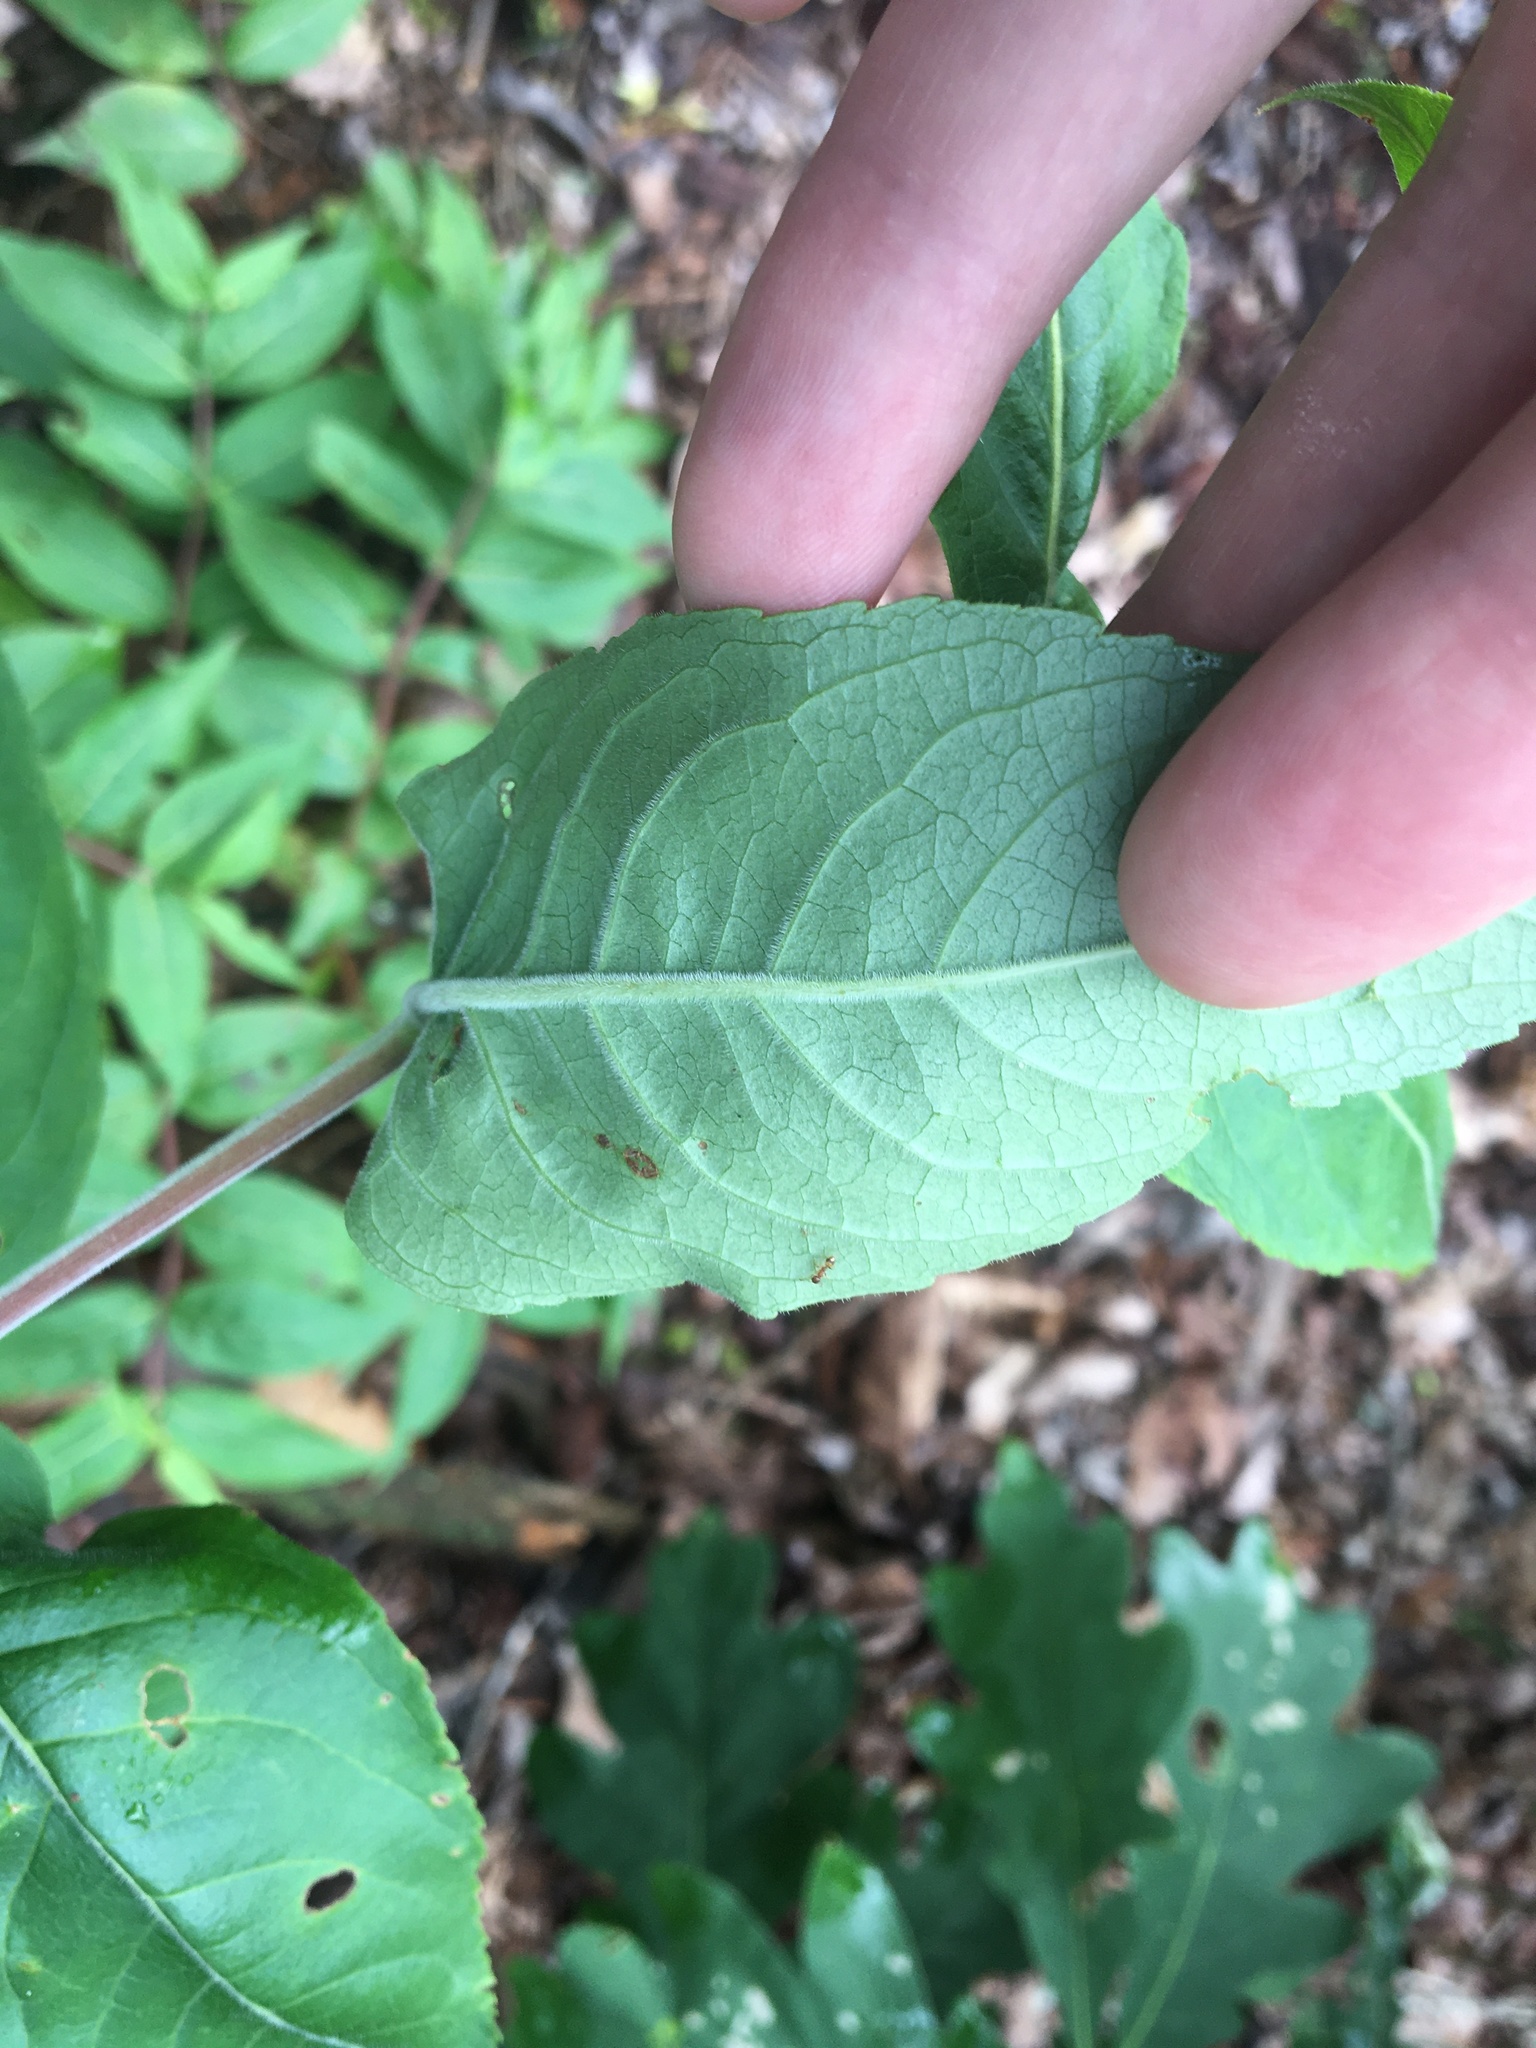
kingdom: Plantae
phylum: Tracheophyta
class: Magnoliopsida
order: Dipsacales
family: Caprifoliaceae
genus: Diervilla
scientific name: Diervilla rivularis
